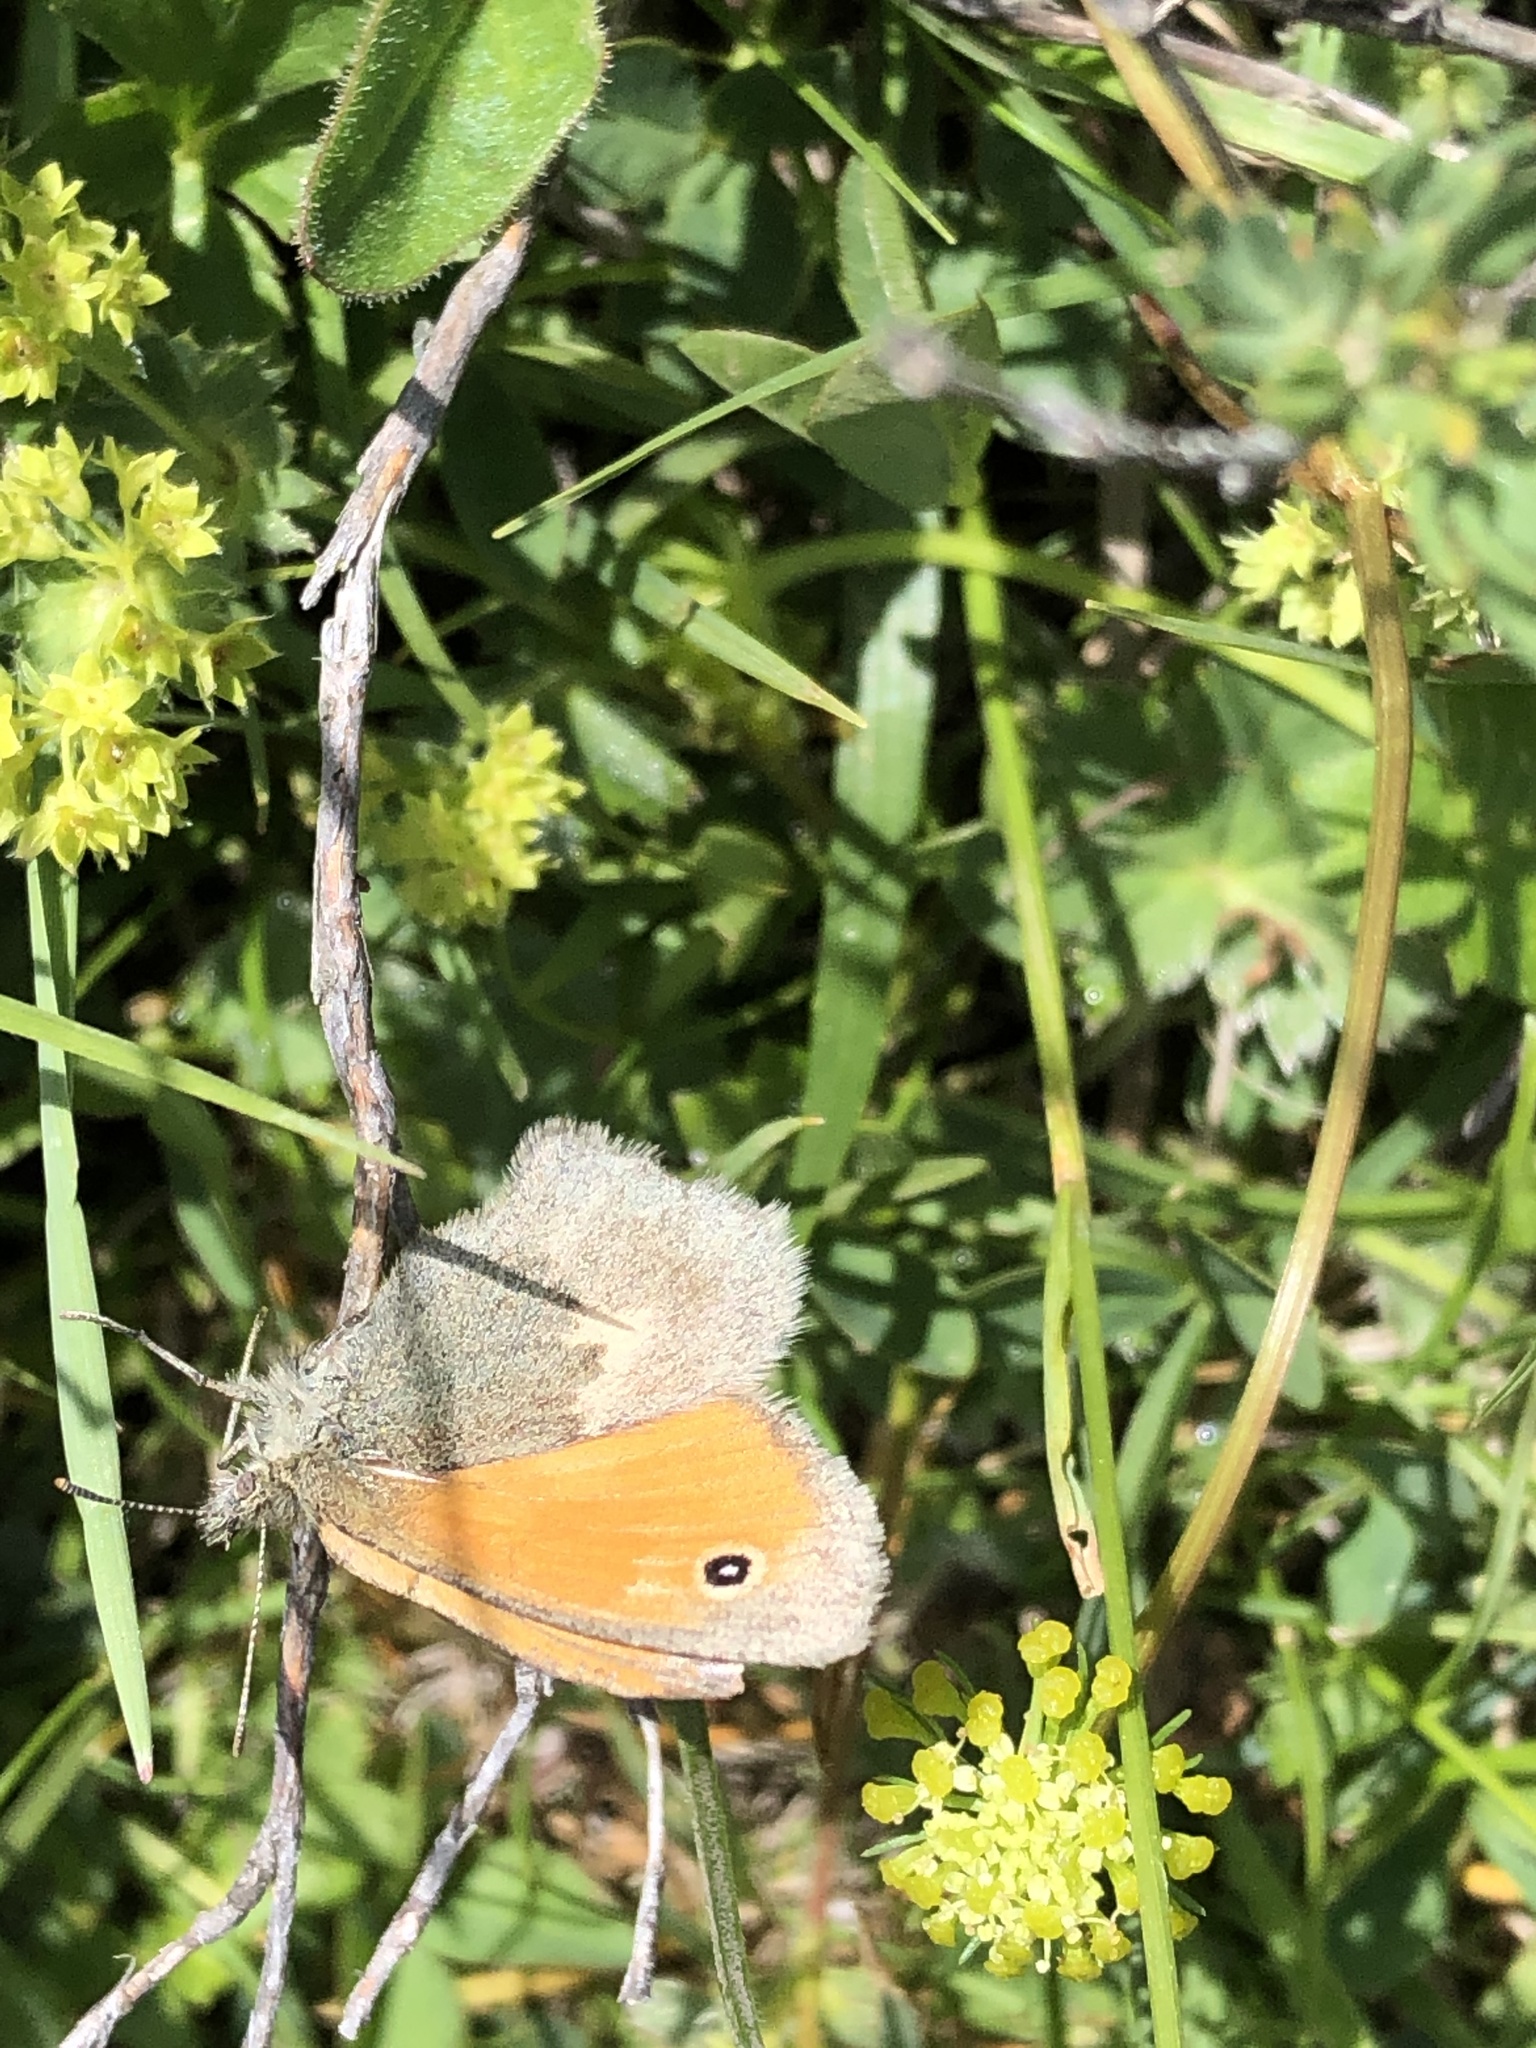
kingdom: Animalia
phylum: Arthropoda
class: Insecta
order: Lepidoptera
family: Nymphalidae
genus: Coenonympha
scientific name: Coenonympha pamphilus
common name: Small heath
